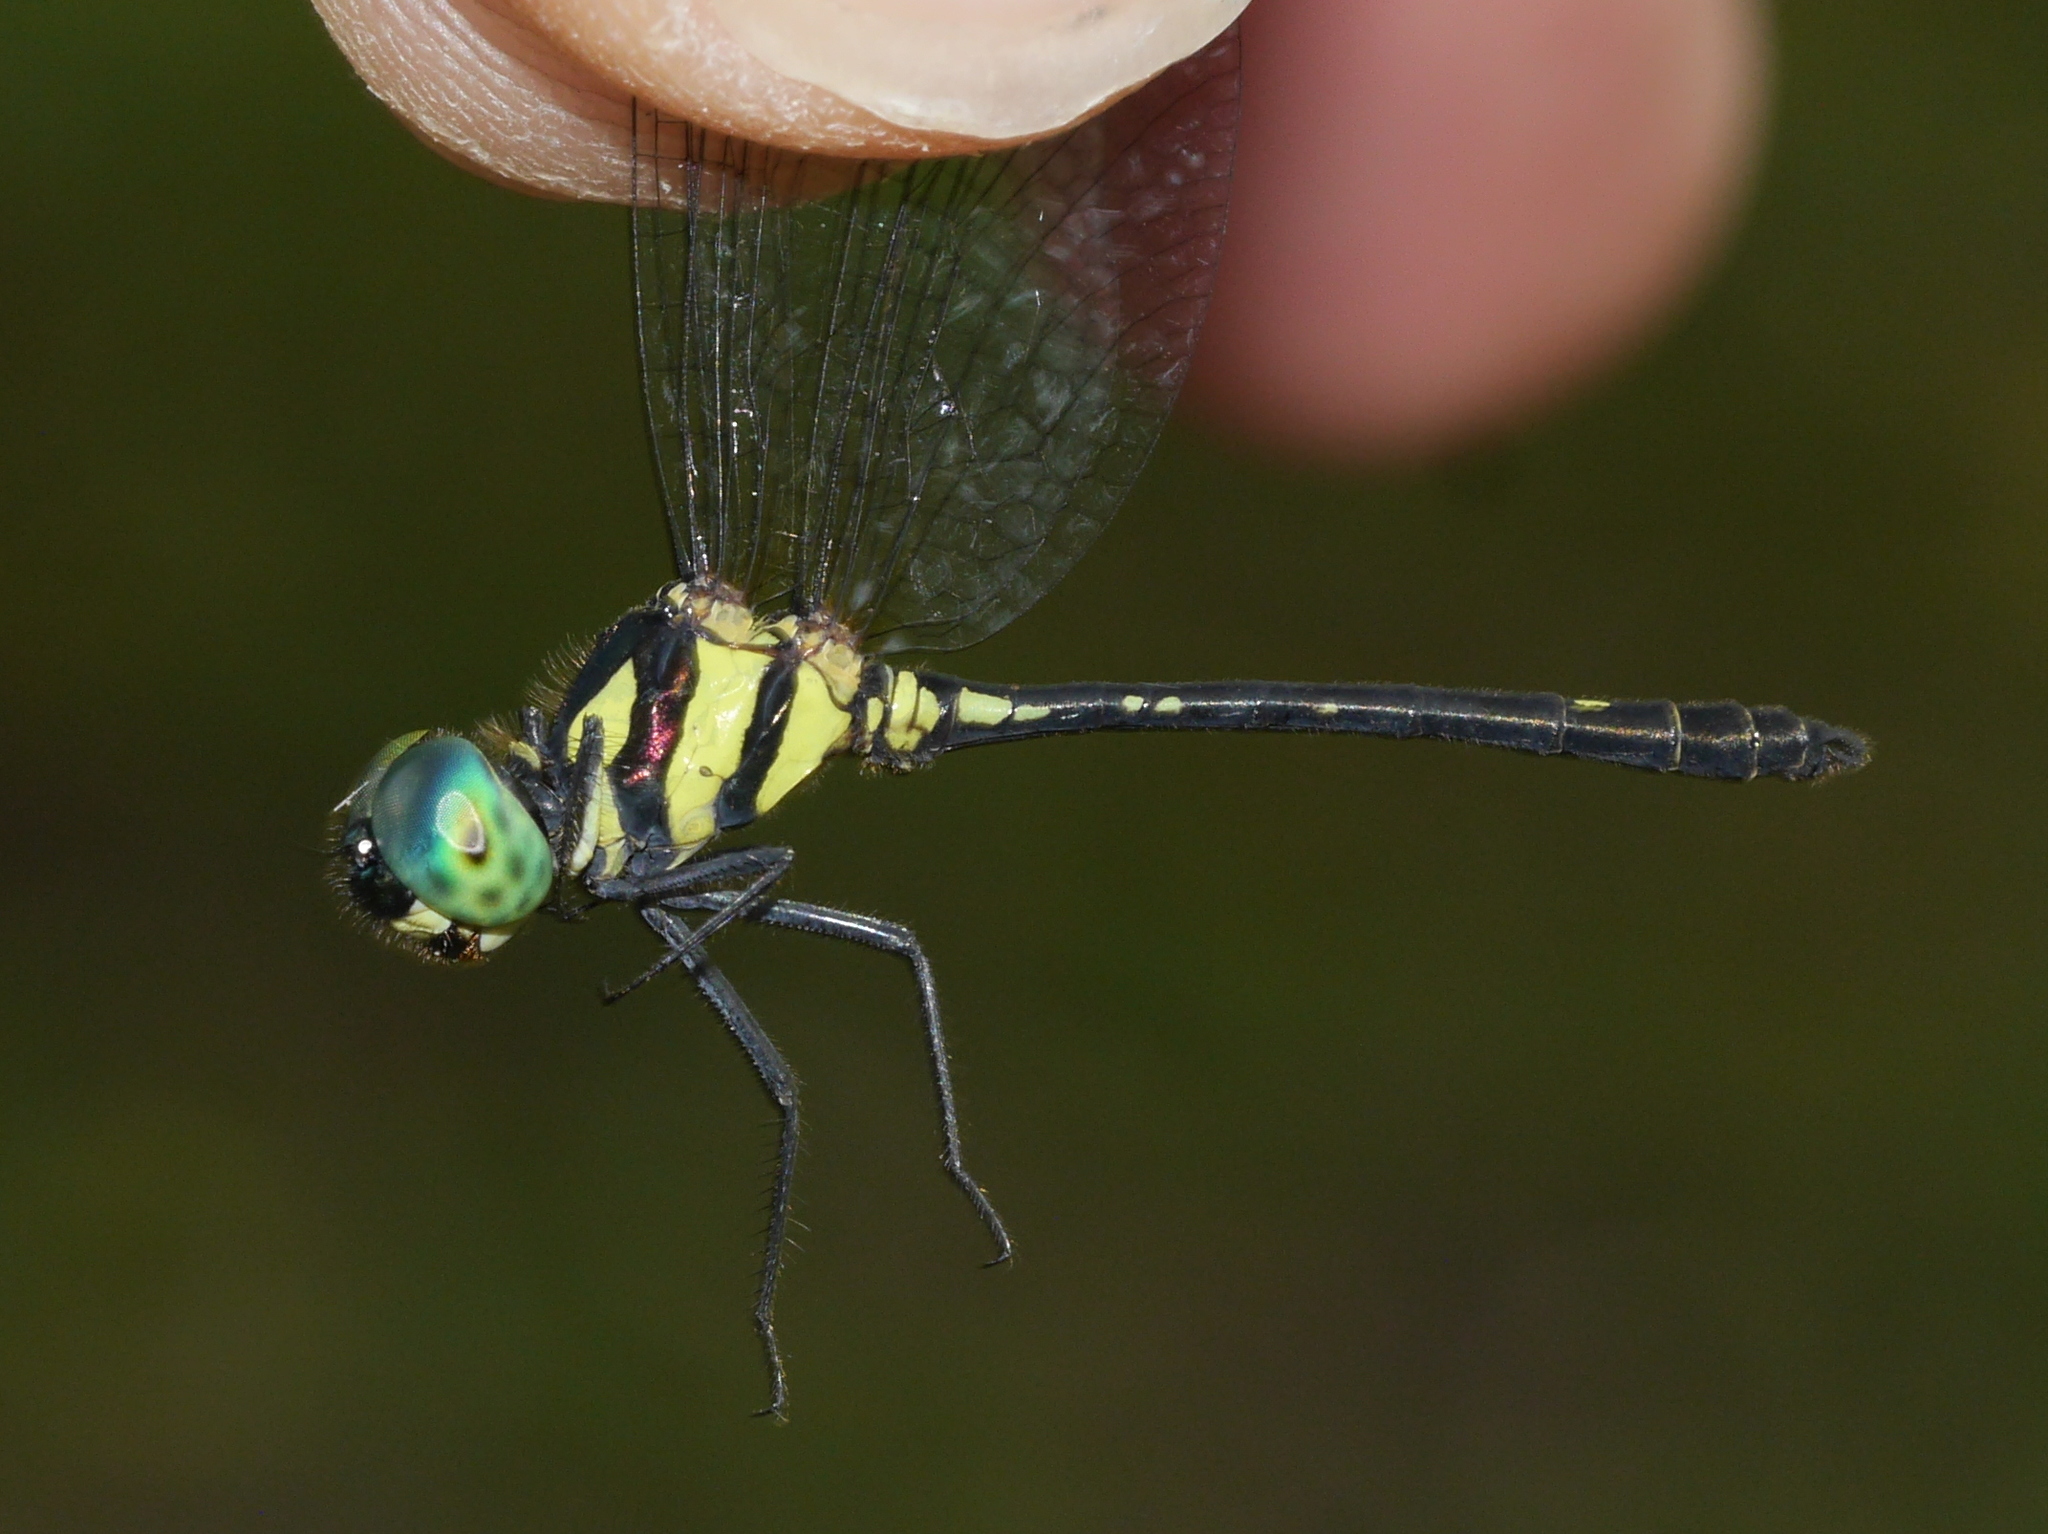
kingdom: Animalia
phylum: Arthropoda
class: Insecta
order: Odonata
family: Libellulidae
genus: Tetrathemis
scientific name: Tetrathemis hyalina
